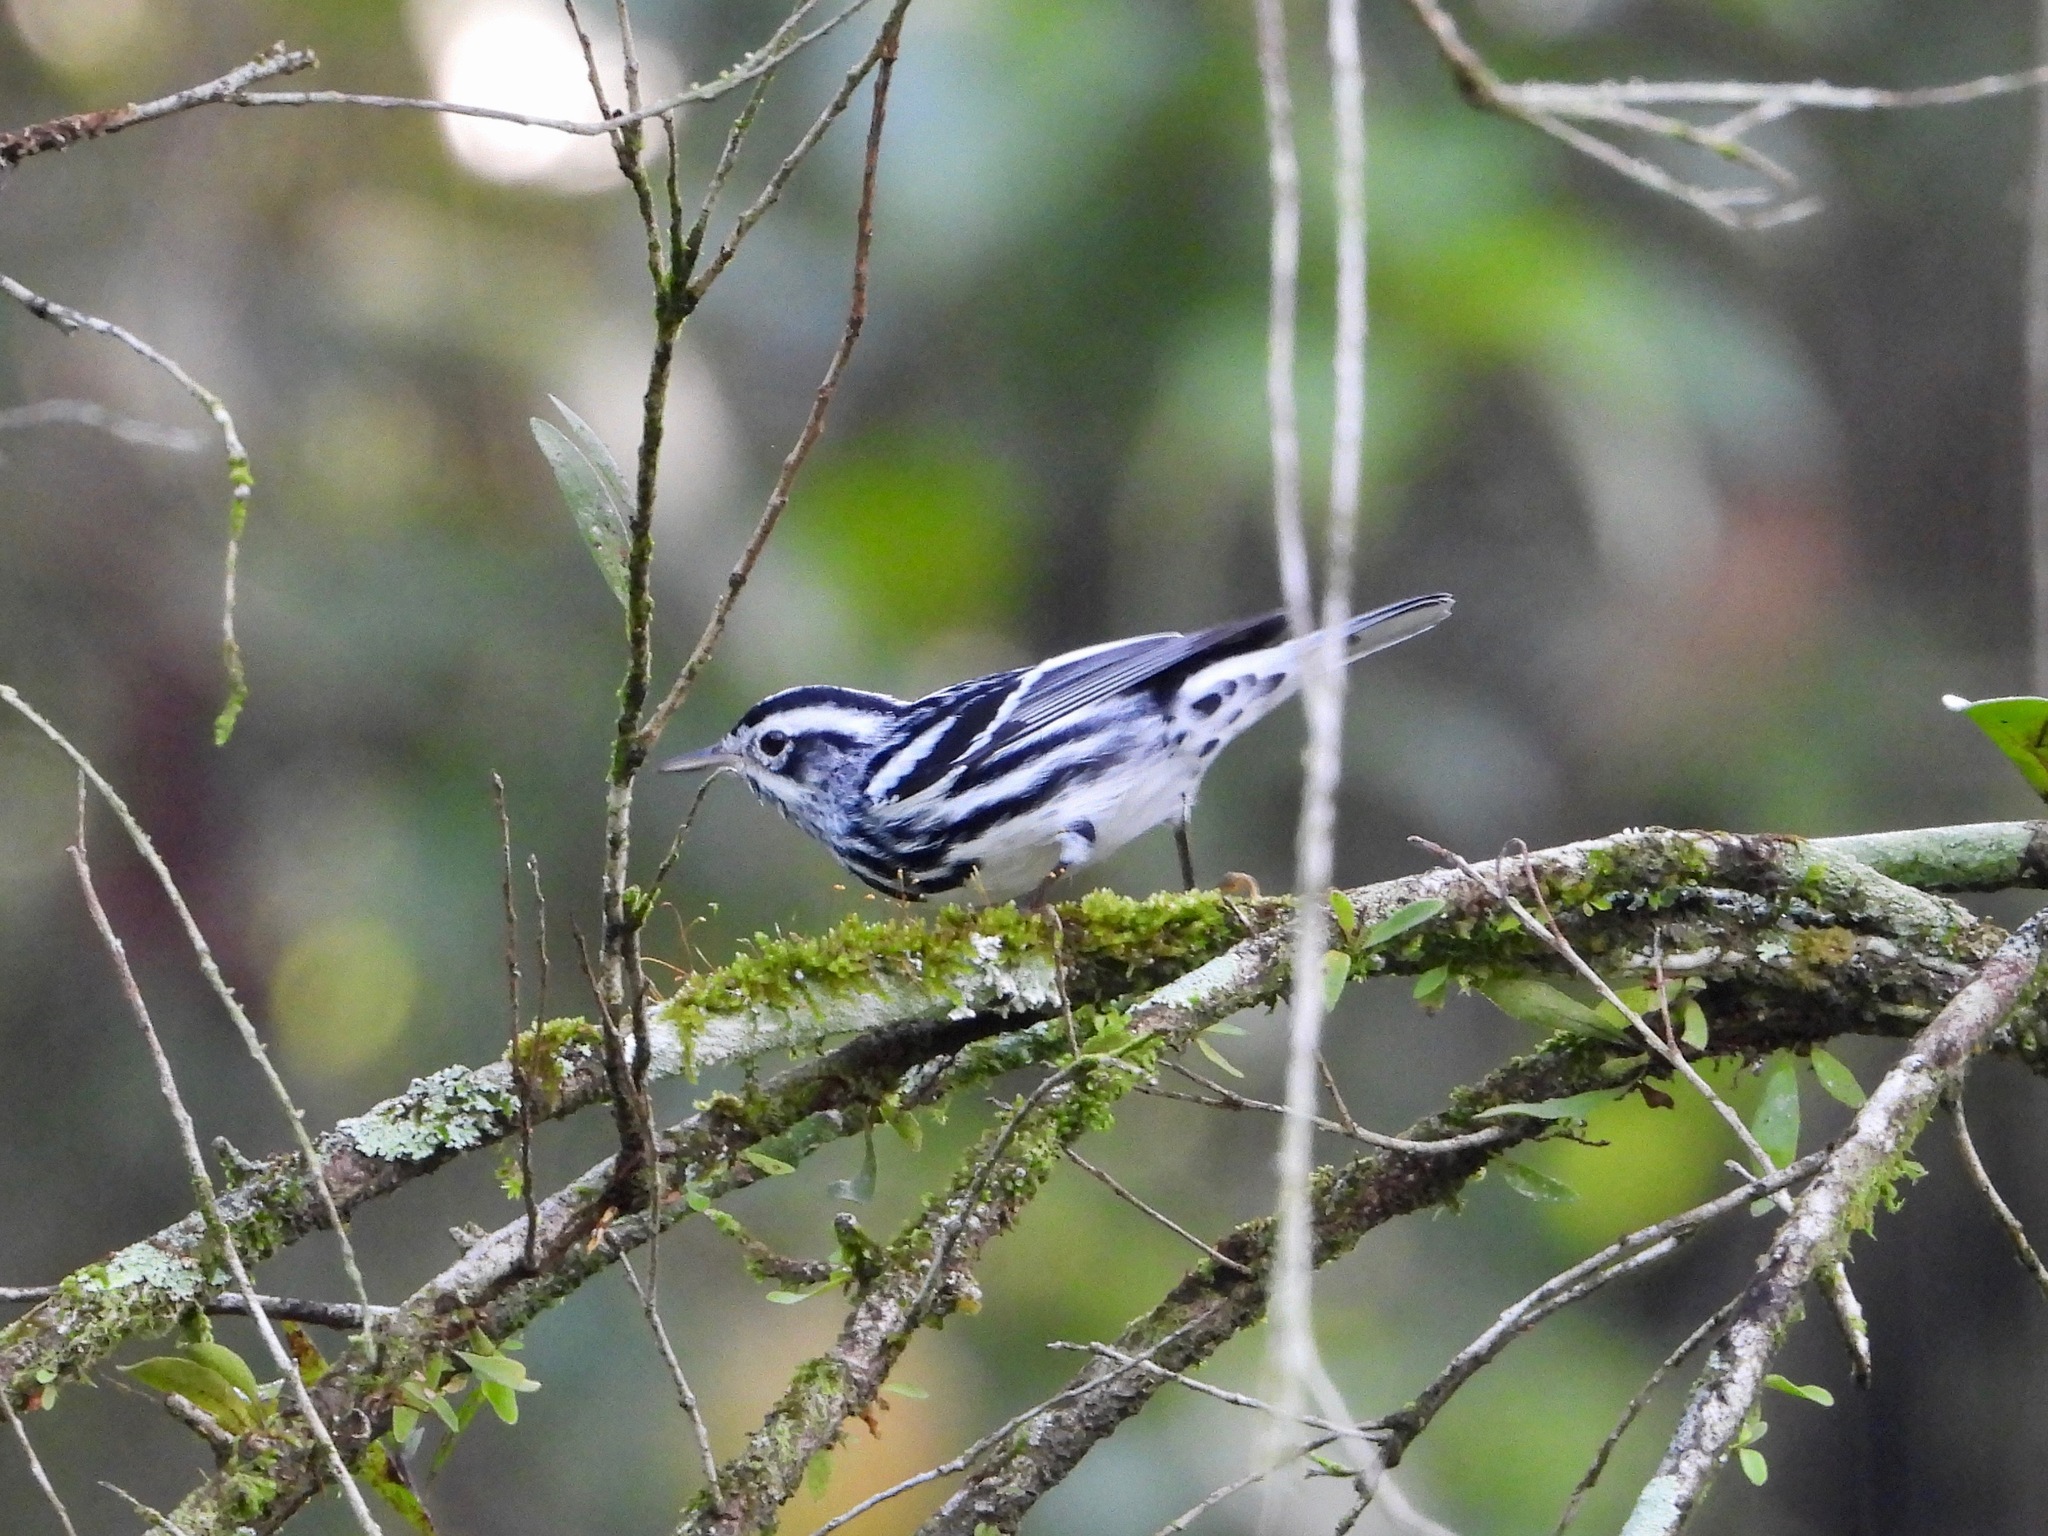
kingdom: Animalia
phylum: Chordata
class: Aves
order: Passeriformes
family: Parulidae
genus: Mniotilta
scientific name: Mniotilta varia
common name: Black-and-white warbler
